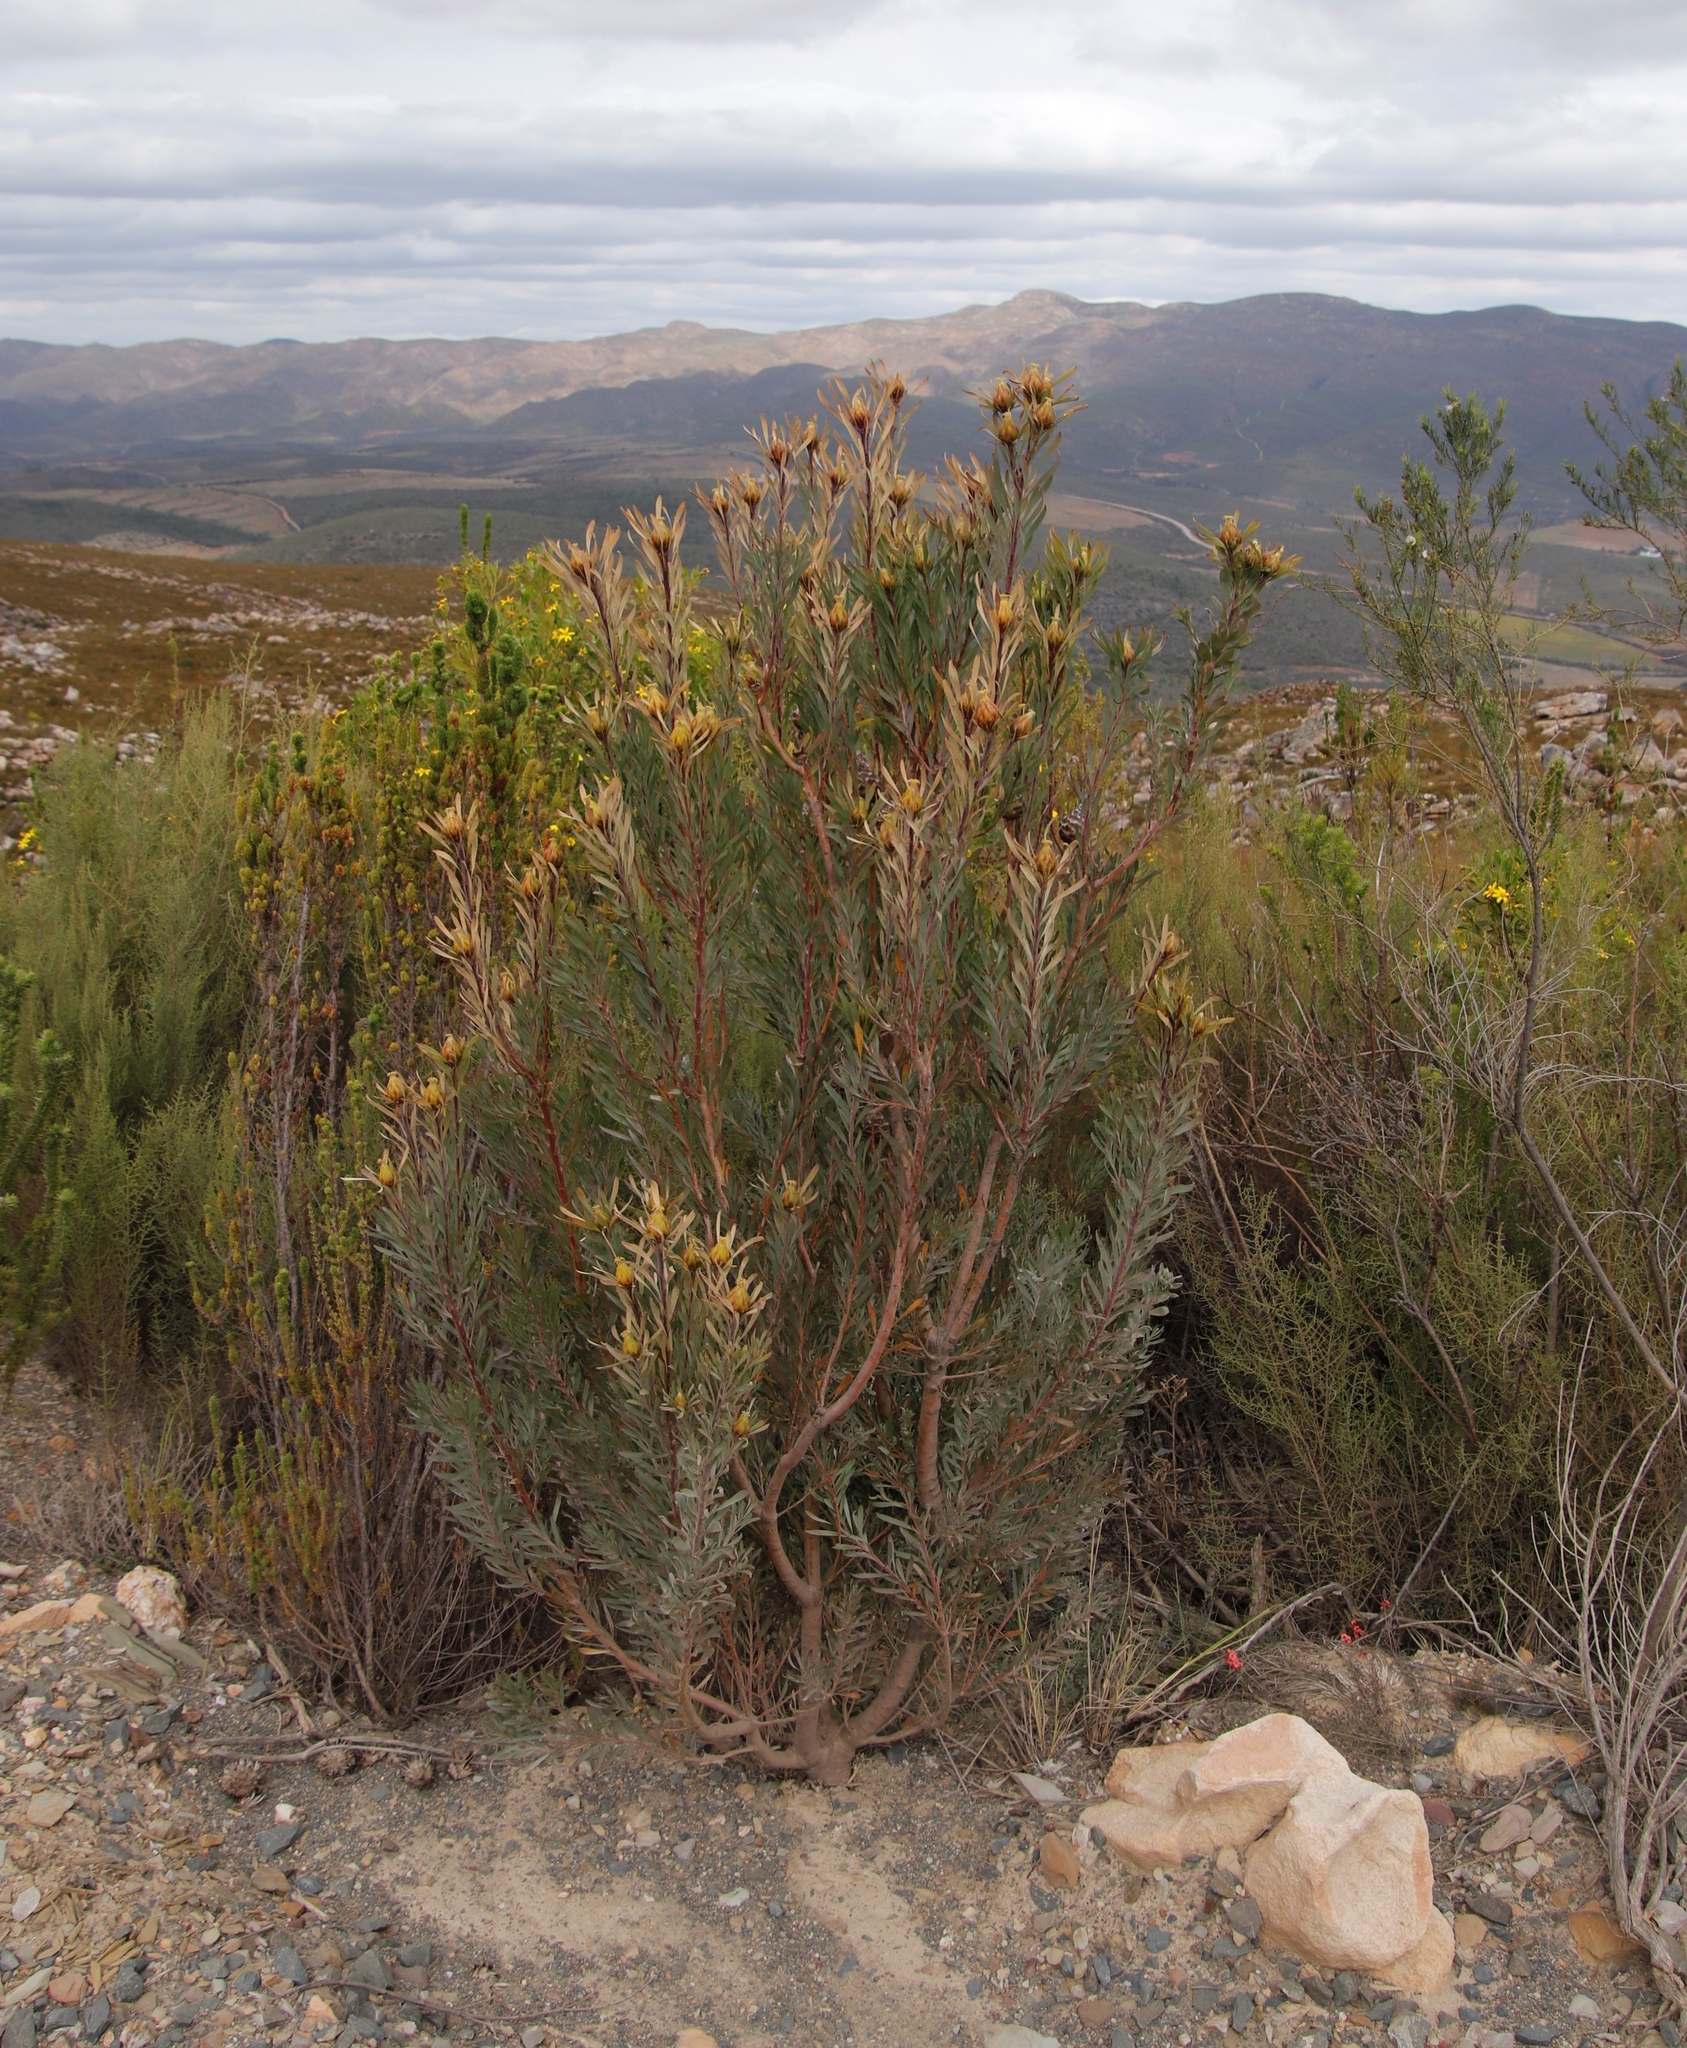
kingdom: Plantae
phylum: Tracheophyta
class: Magnoliopsida
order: Proteales
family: Proteaceae
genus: Leucadendron
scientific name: Leucadendron rubrum
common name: Spinning top
